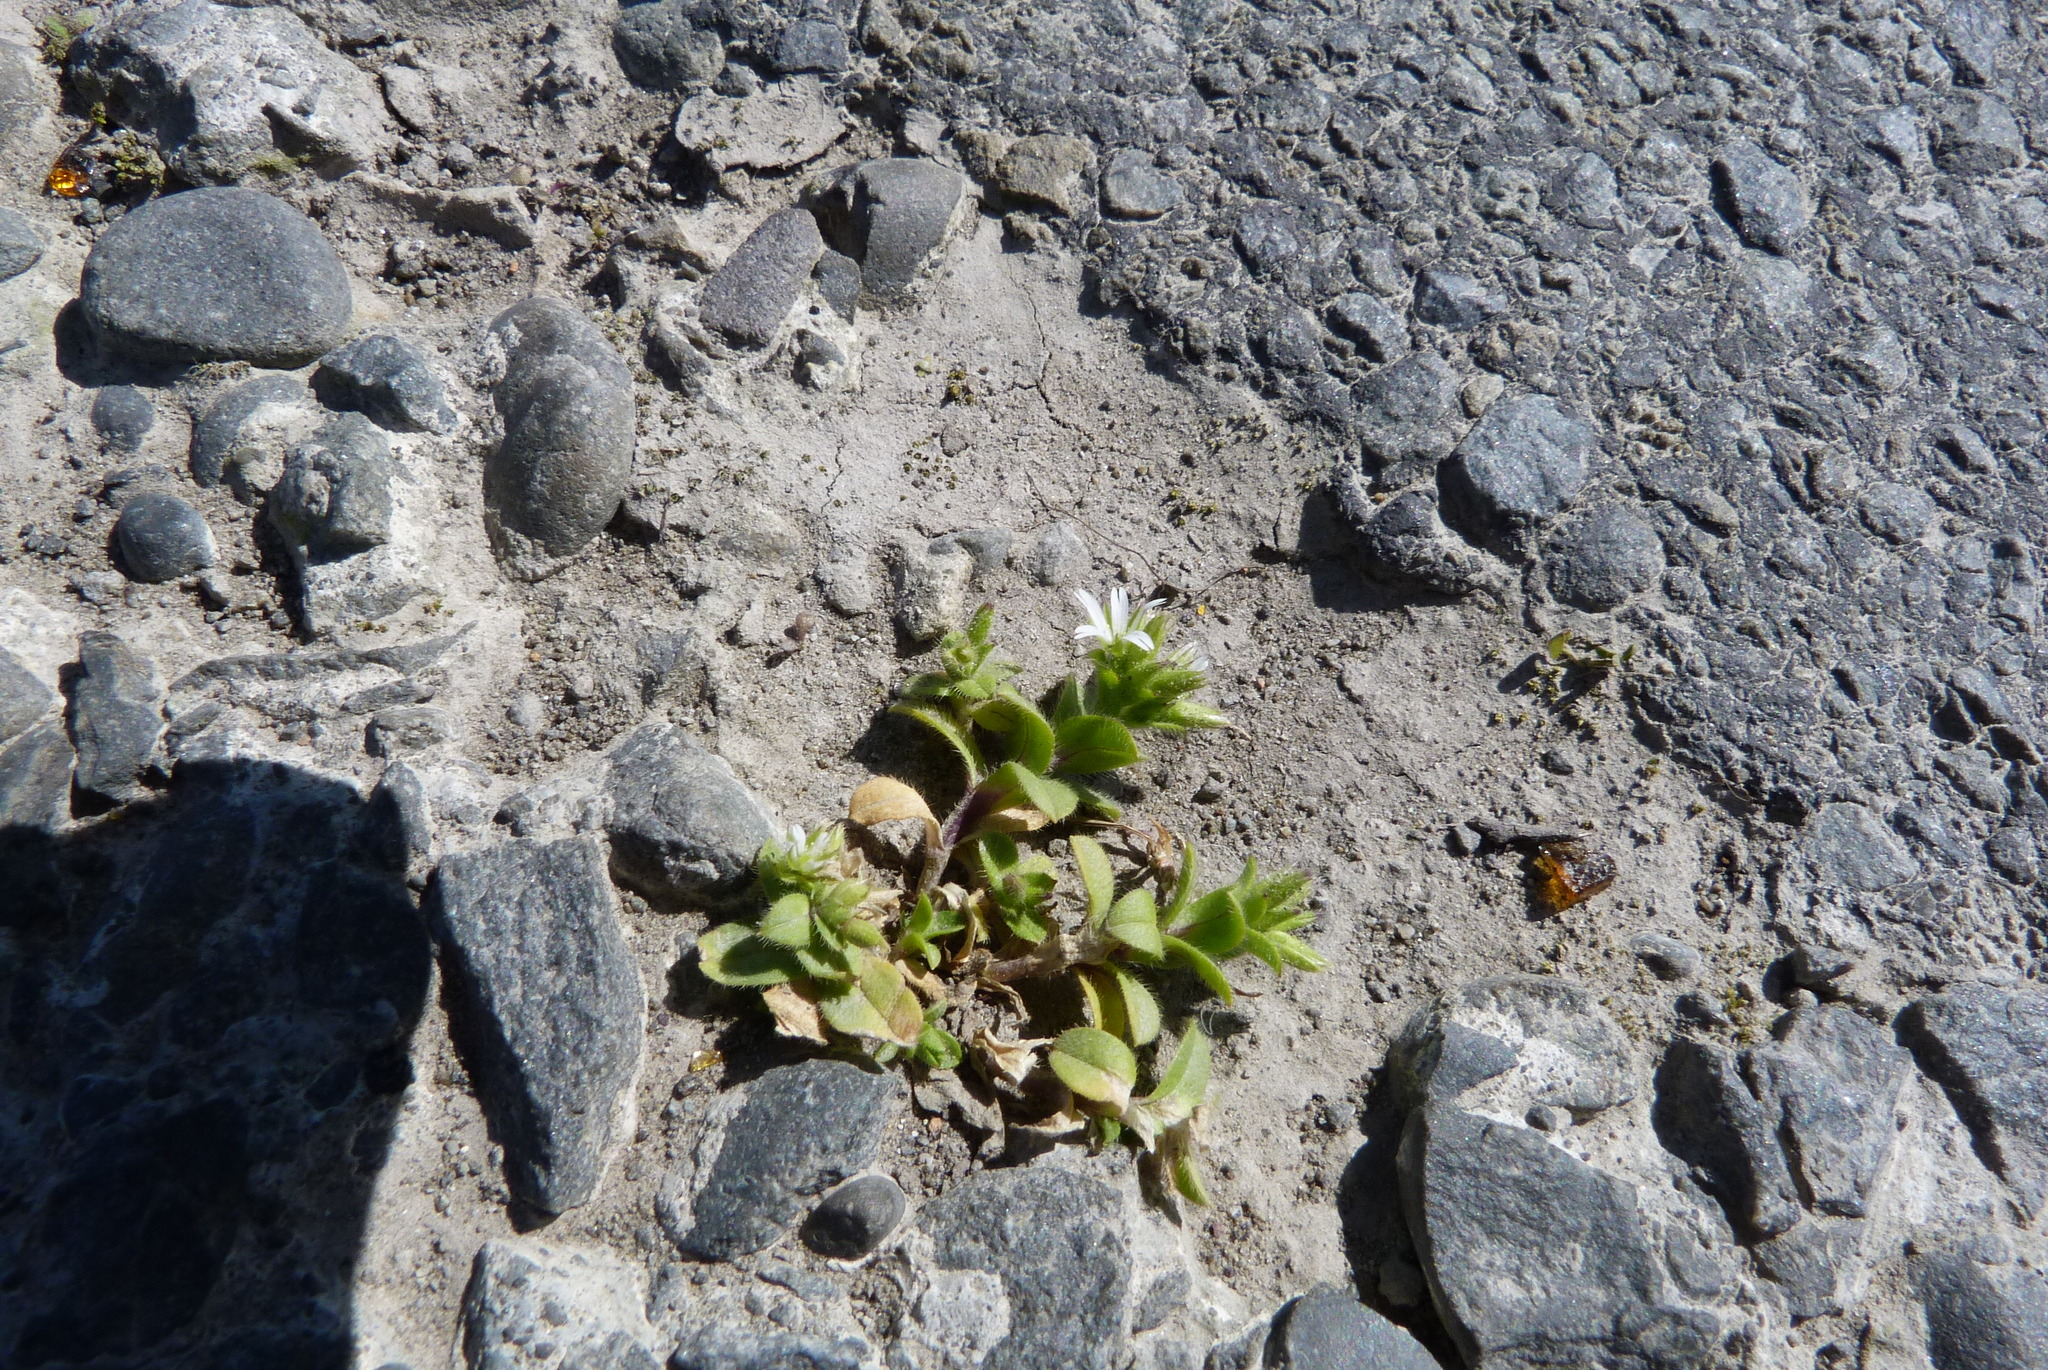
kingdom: Plantae
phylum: Tracheophyta
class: Magnoliopsida
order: Caryophyllales
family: Caryophyllaceae
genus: Cerastium
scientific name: Cerastium glomeratum
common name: Sticky chickweed
